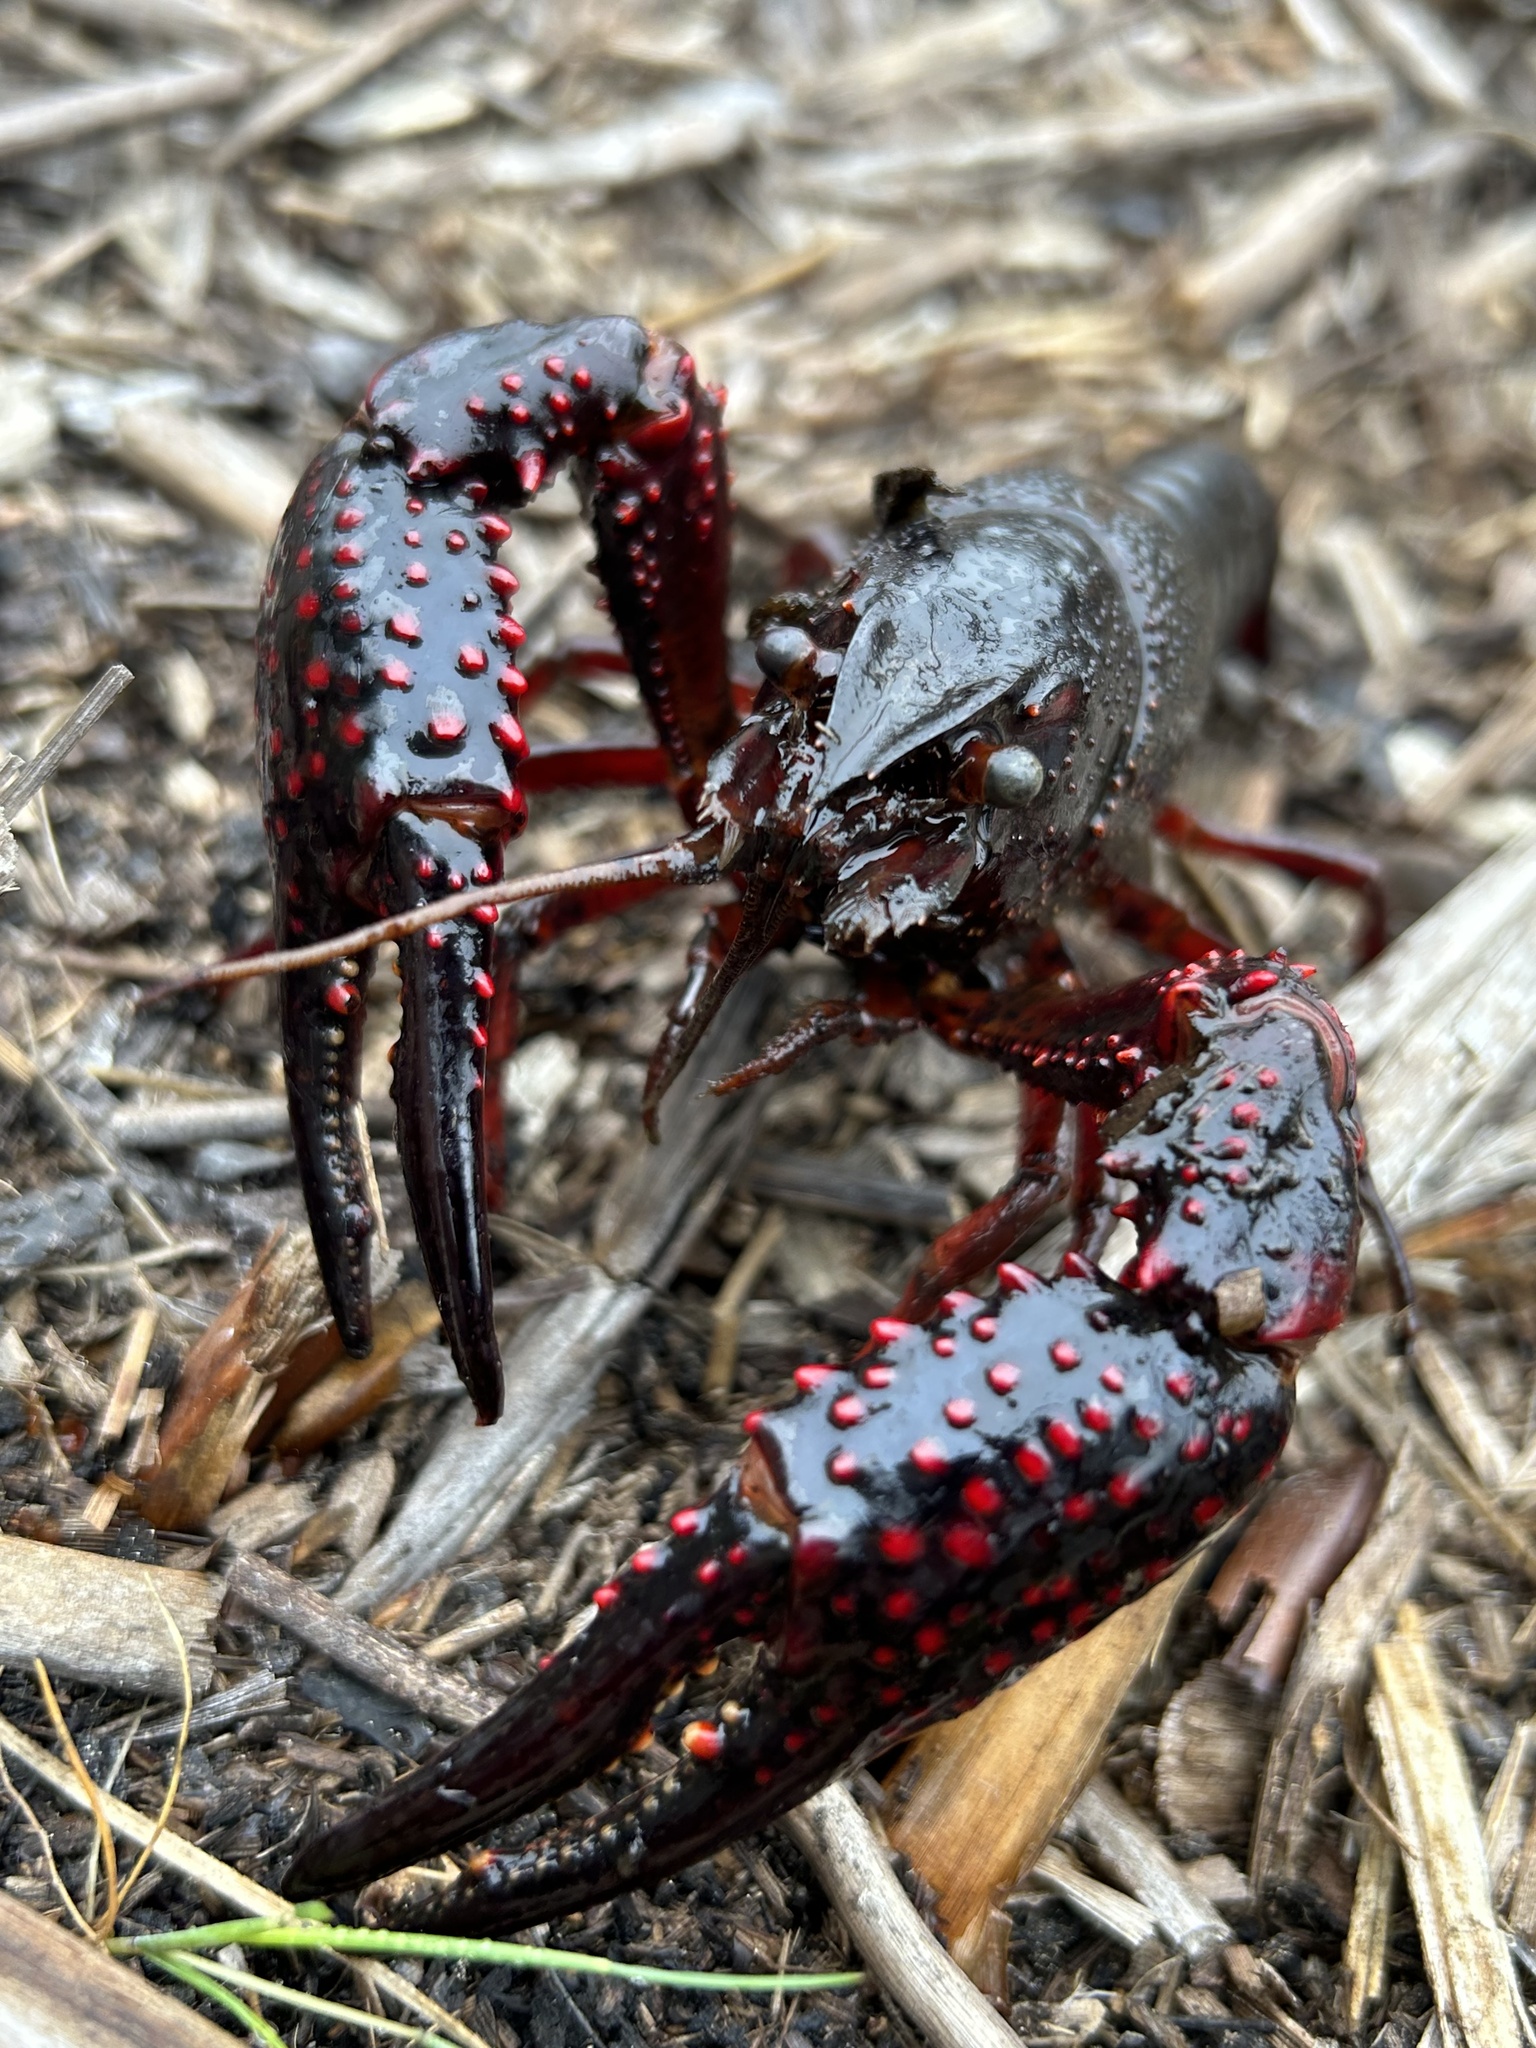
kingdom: Animalia
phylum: Arthropoda
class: Malacostraca
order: Decapoda
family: Cambaridae
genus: Procambarus
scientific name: Procambarus clarkii
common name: Red swamp crayfish
